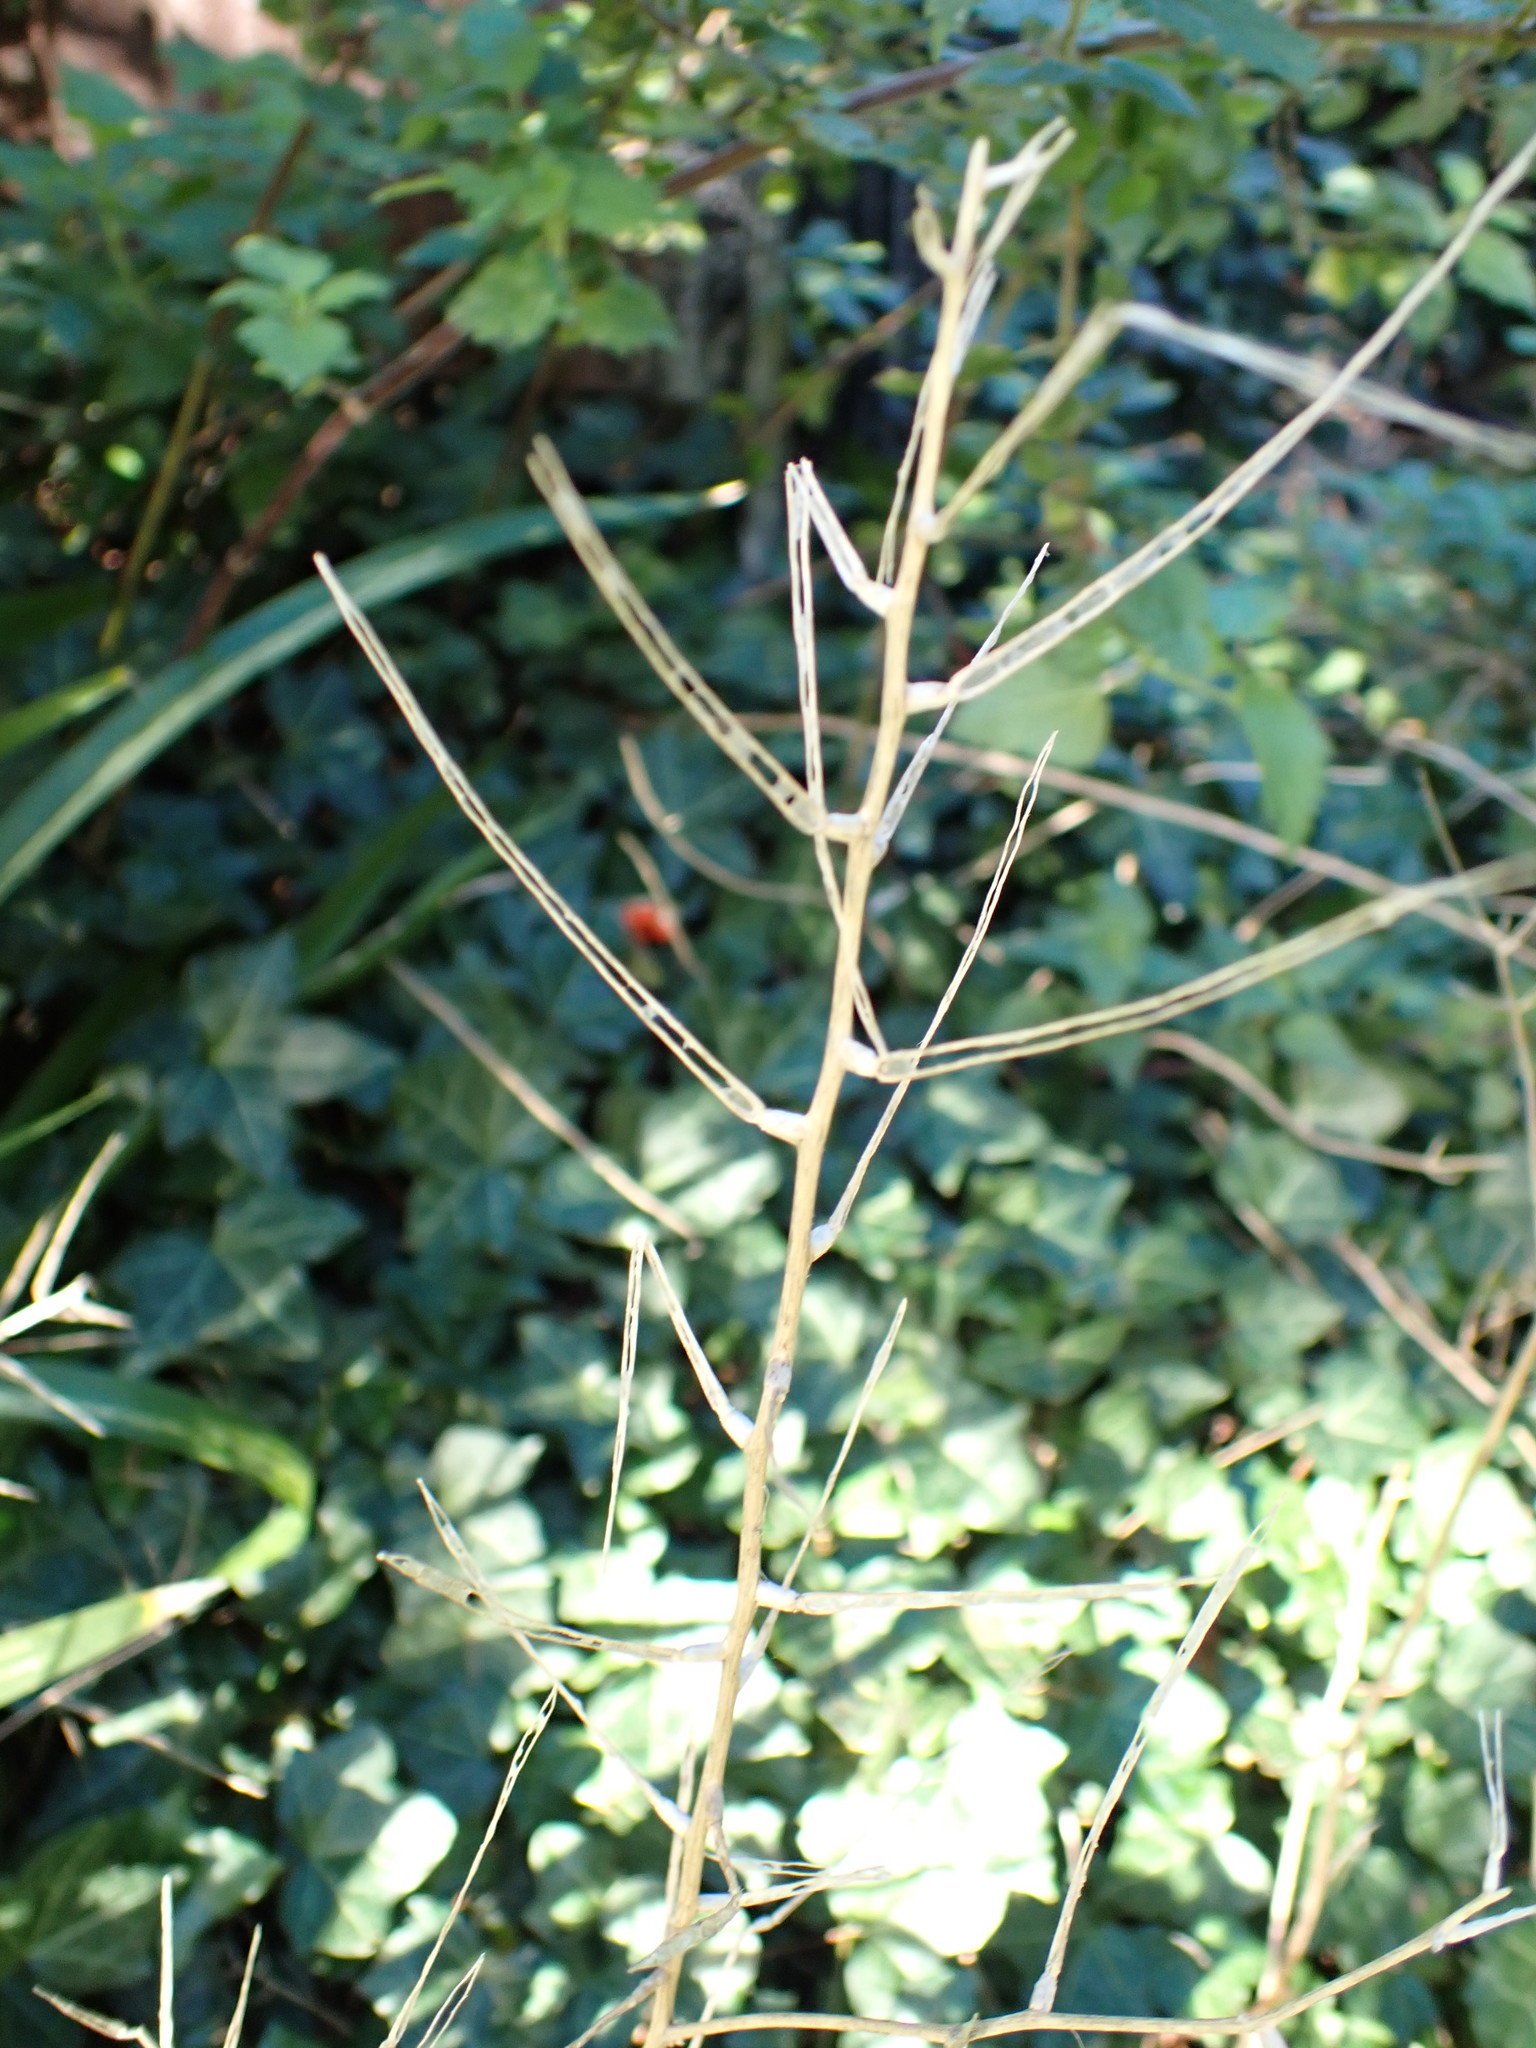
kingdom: Plantae
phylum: Tracheophyta
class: Magnoliopsida
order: Brassicales
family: Brassicaceae
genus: Alliaria
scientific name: Alliaria petiolata
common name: Garlic mustard
